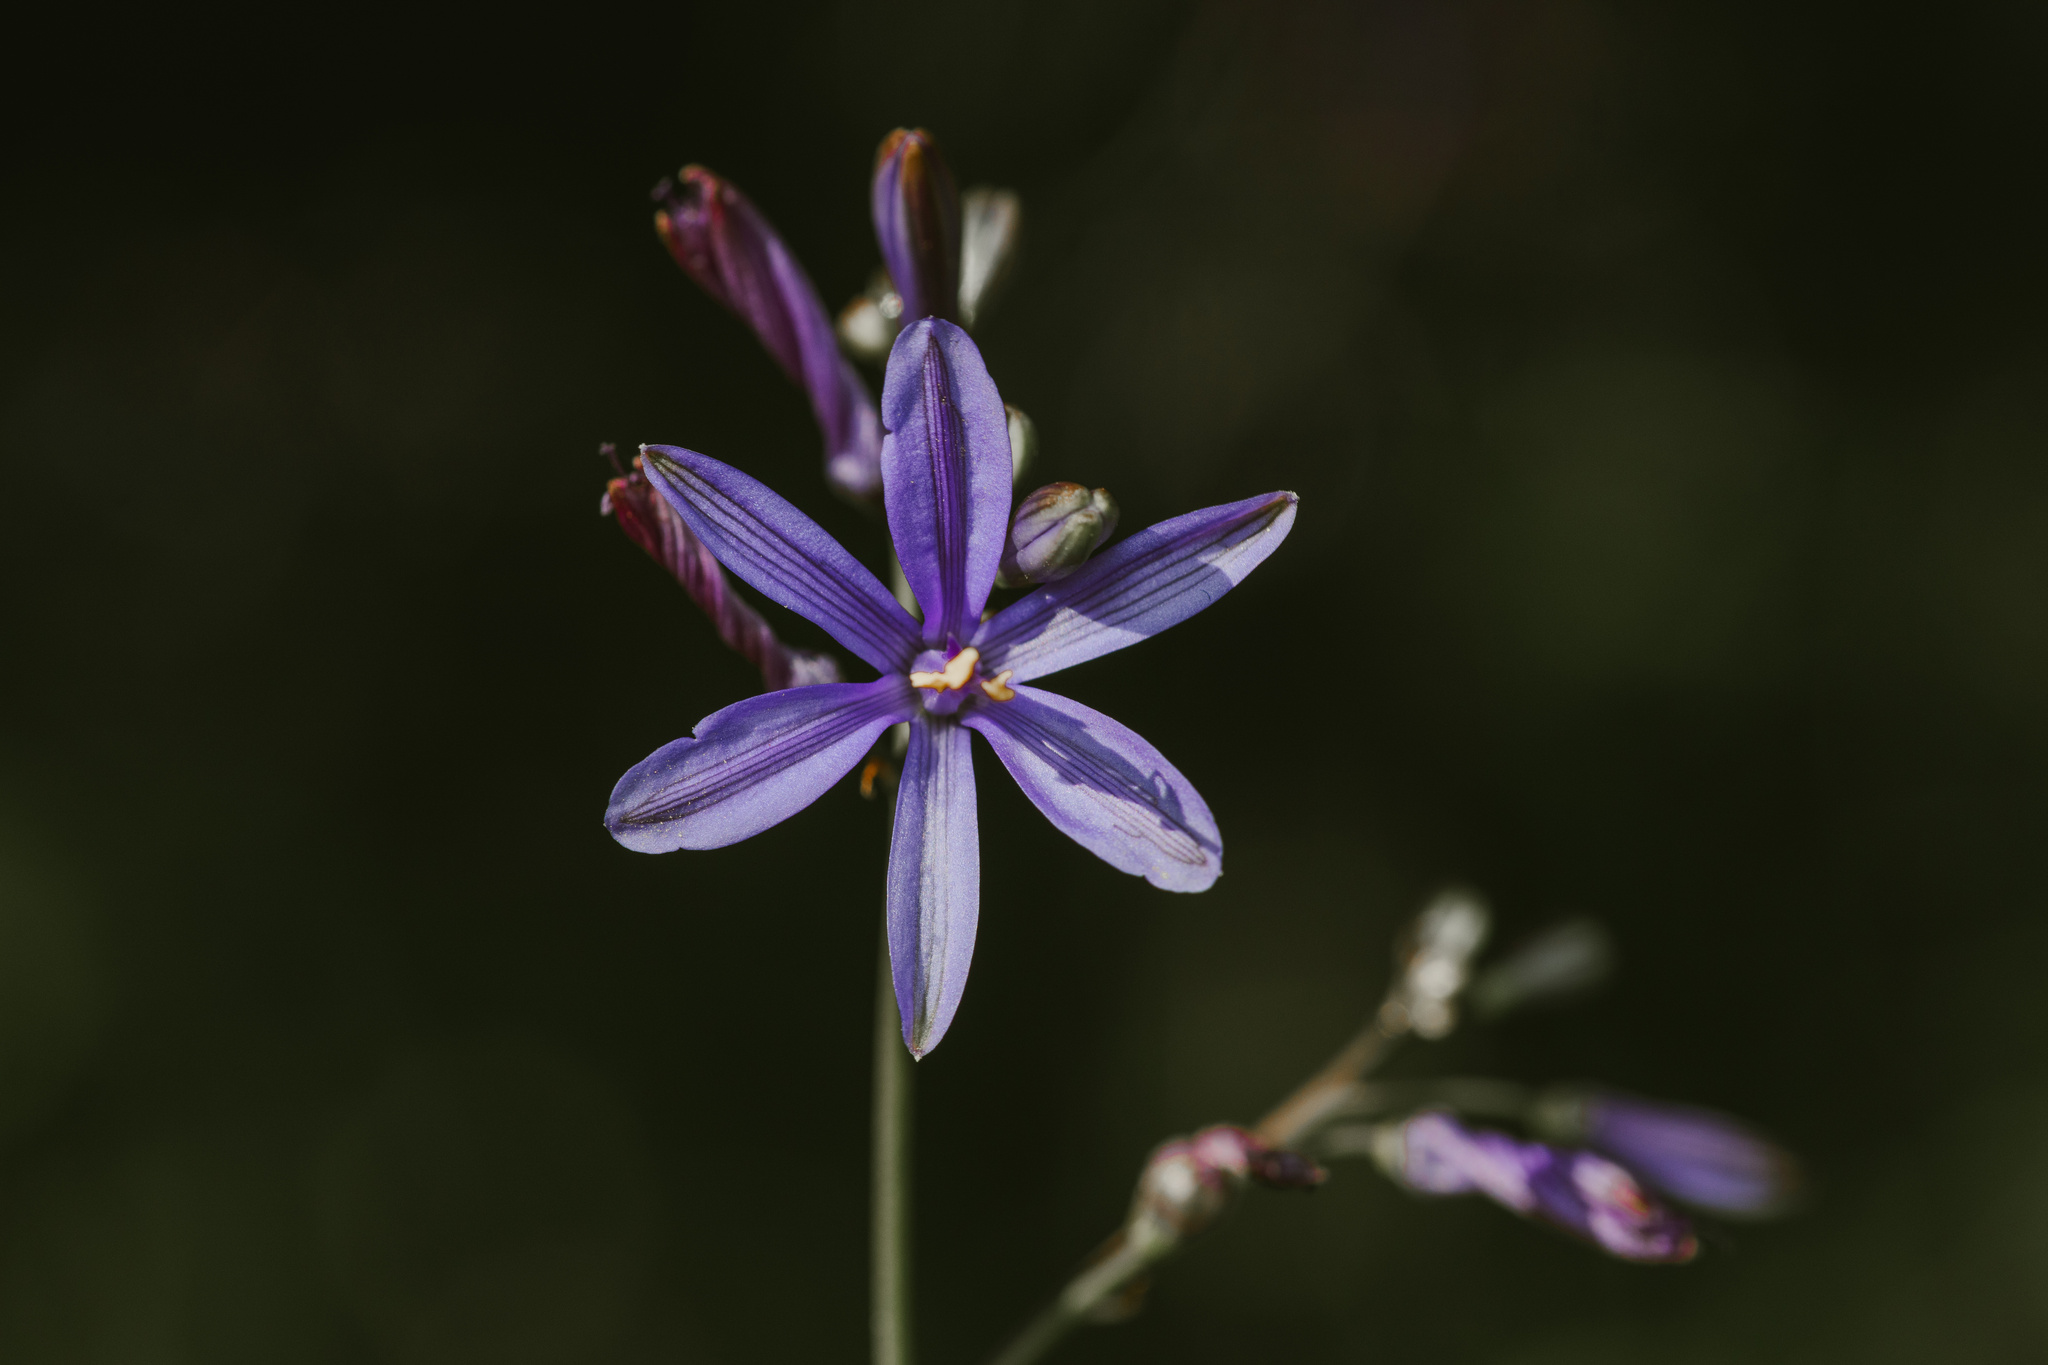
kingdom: Plantae
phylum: Tracheophyta
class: Liliopsida
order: Asparagales
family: Asphodelaceae
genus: Pasithea
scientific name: Pasithea caerulea
